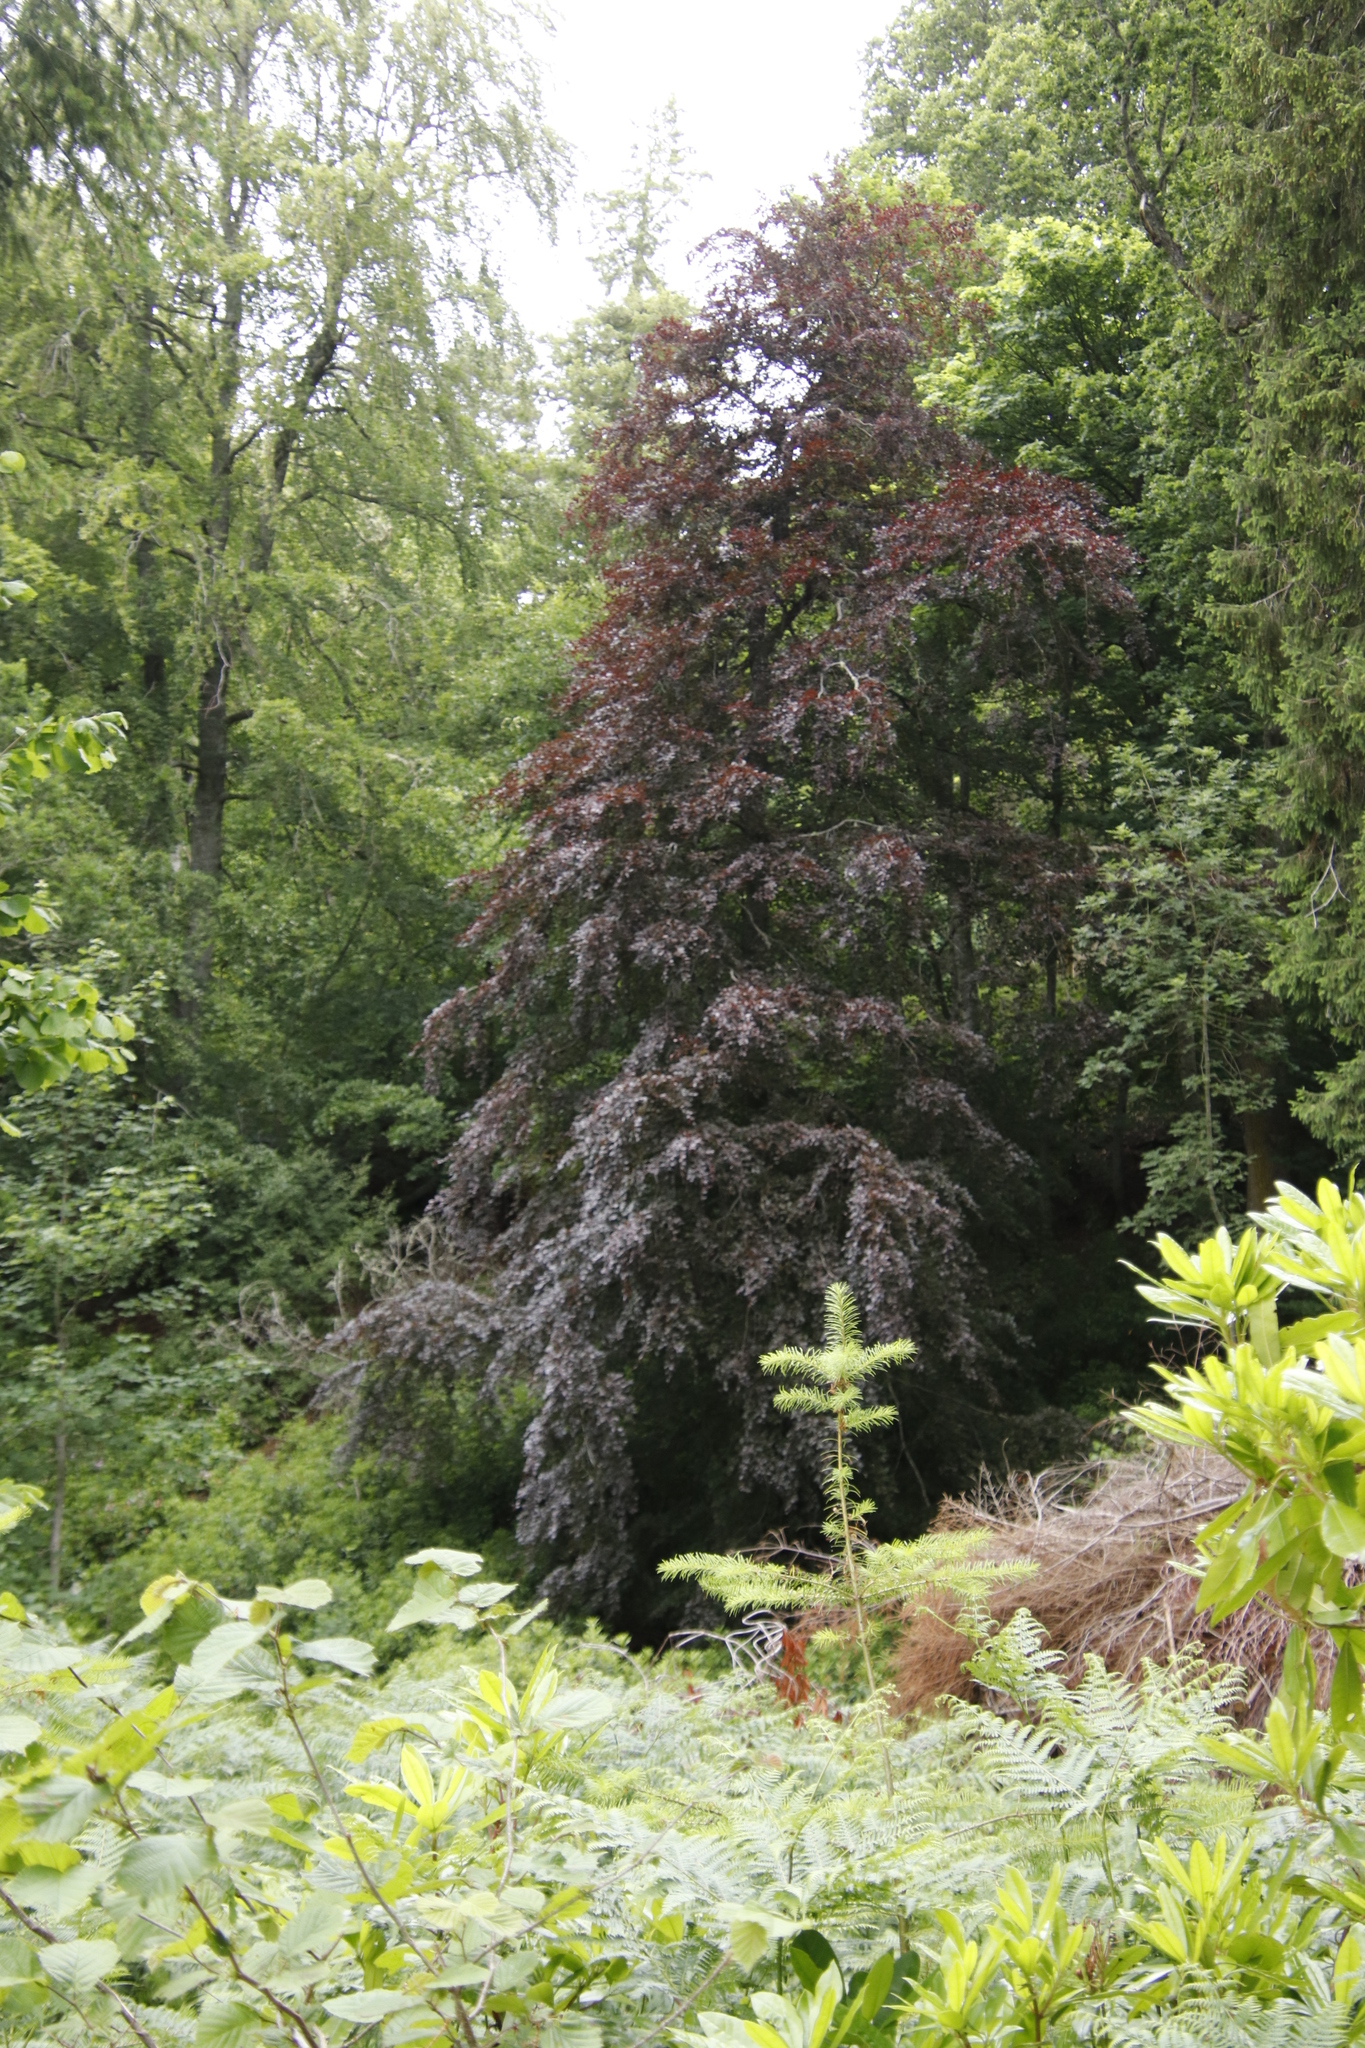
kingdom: Plantae
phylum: Tracheophyta
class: Magnoliopsida
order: Fagales
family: Fagaceae
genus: Fagus
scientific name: Fagus sylvatica
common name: Beech
